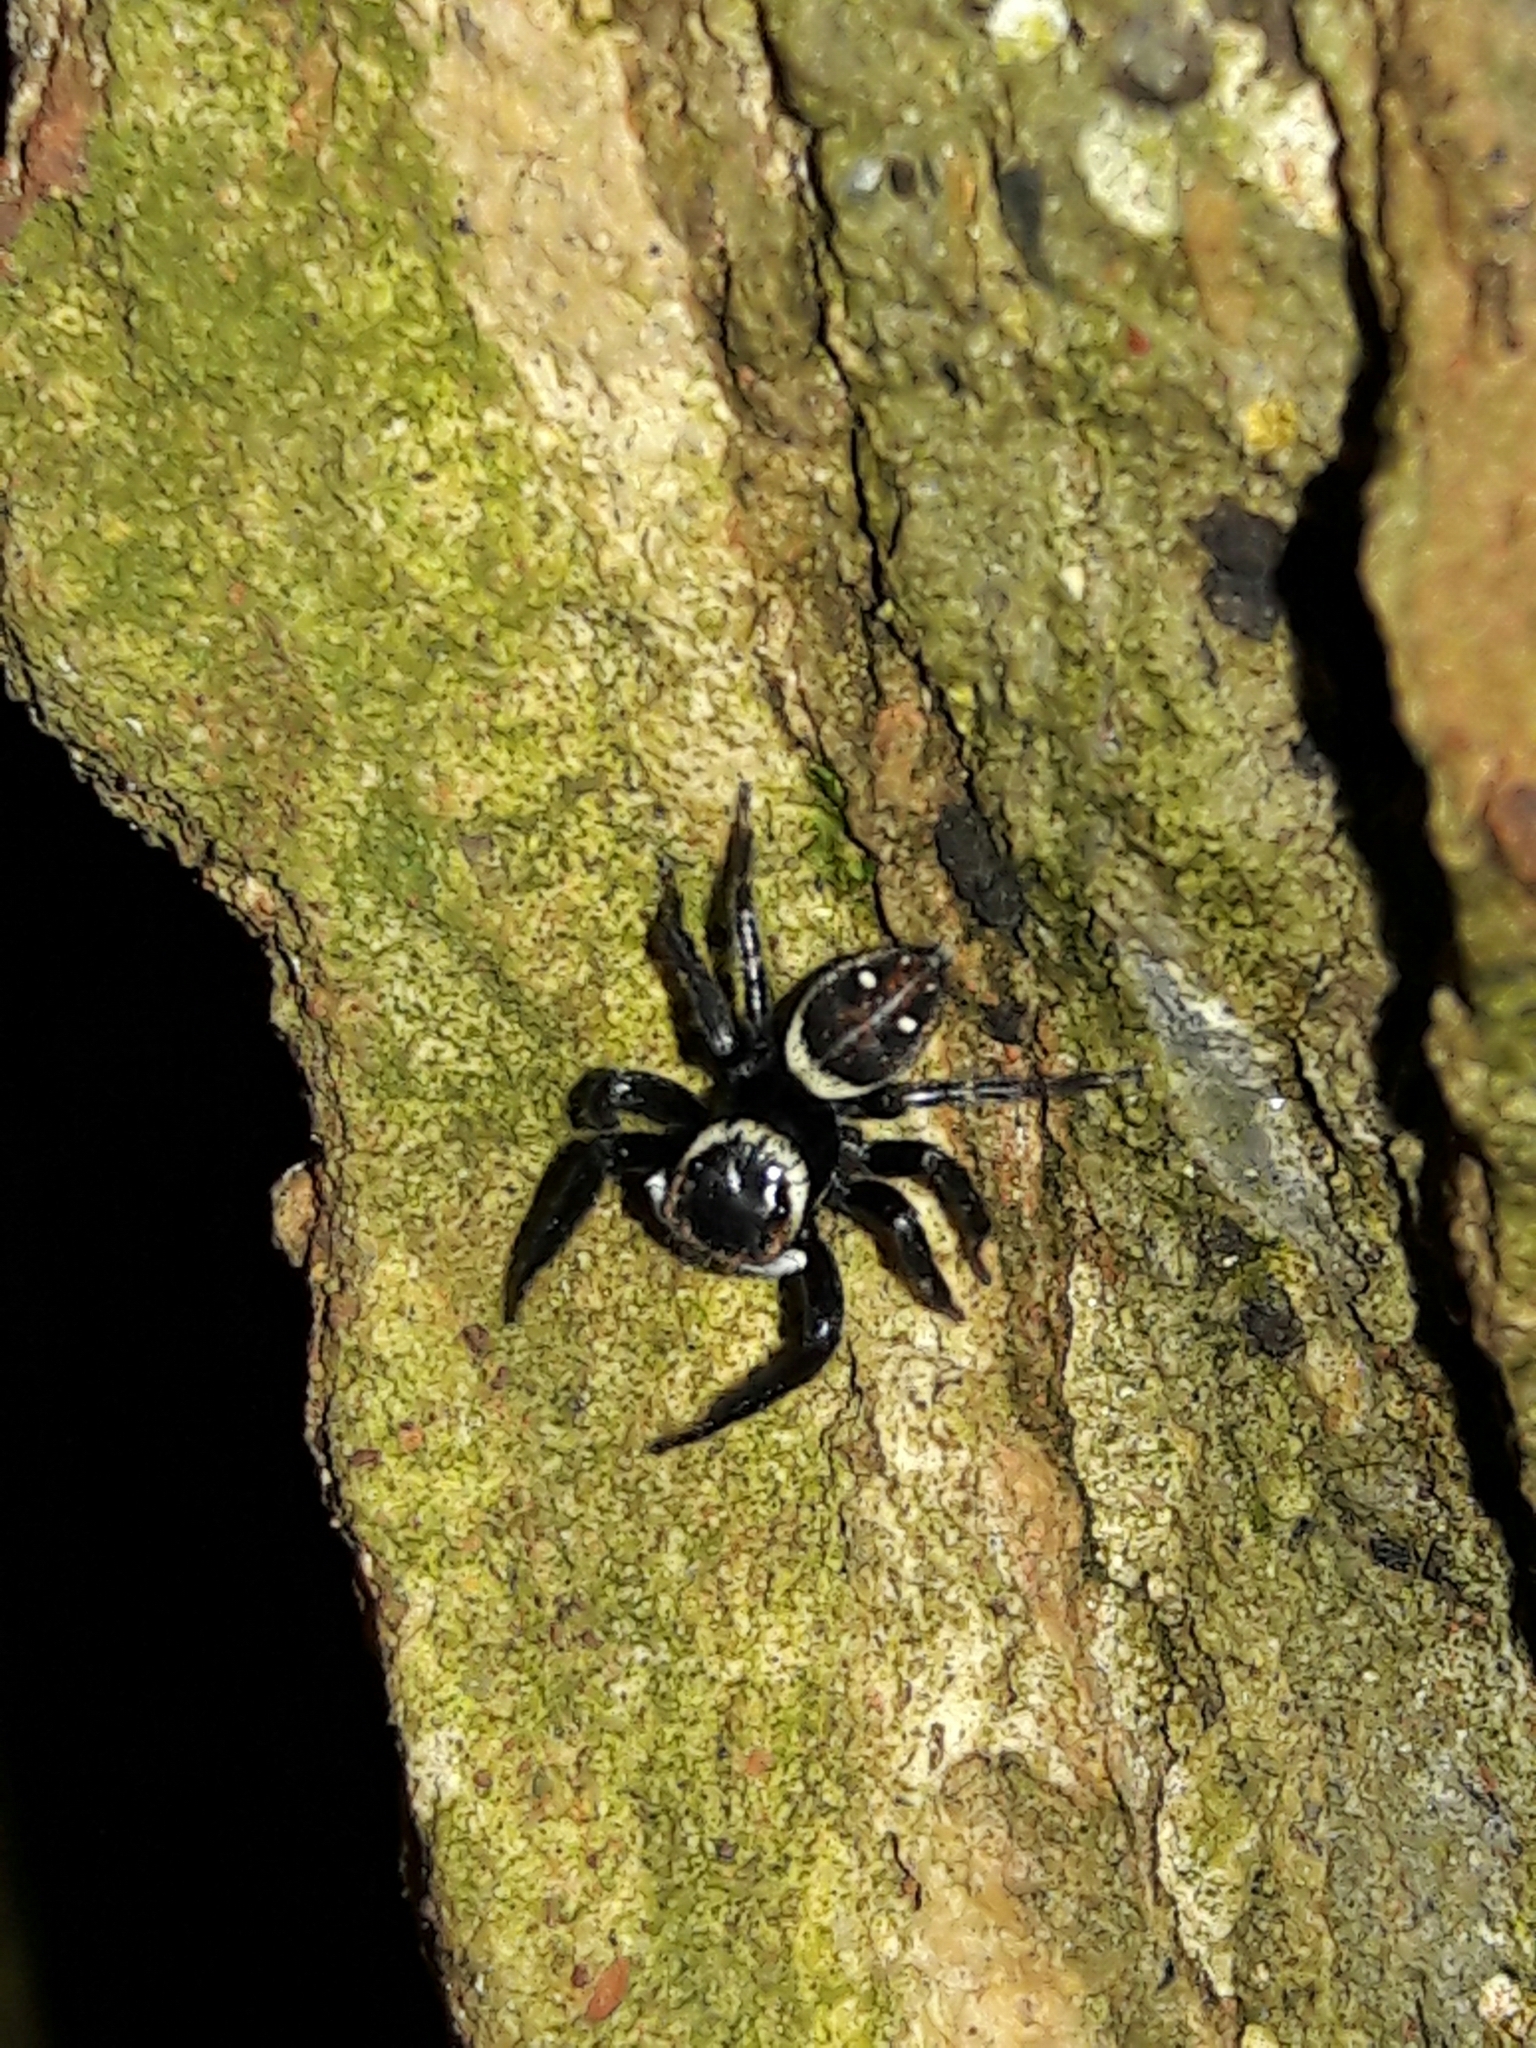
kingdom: Animalia
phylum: Arthropoda
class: Arachnida
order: Araneae
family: Salticidae
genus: Hasarius
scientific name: Hasarius adansoni
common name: Jumping spider
